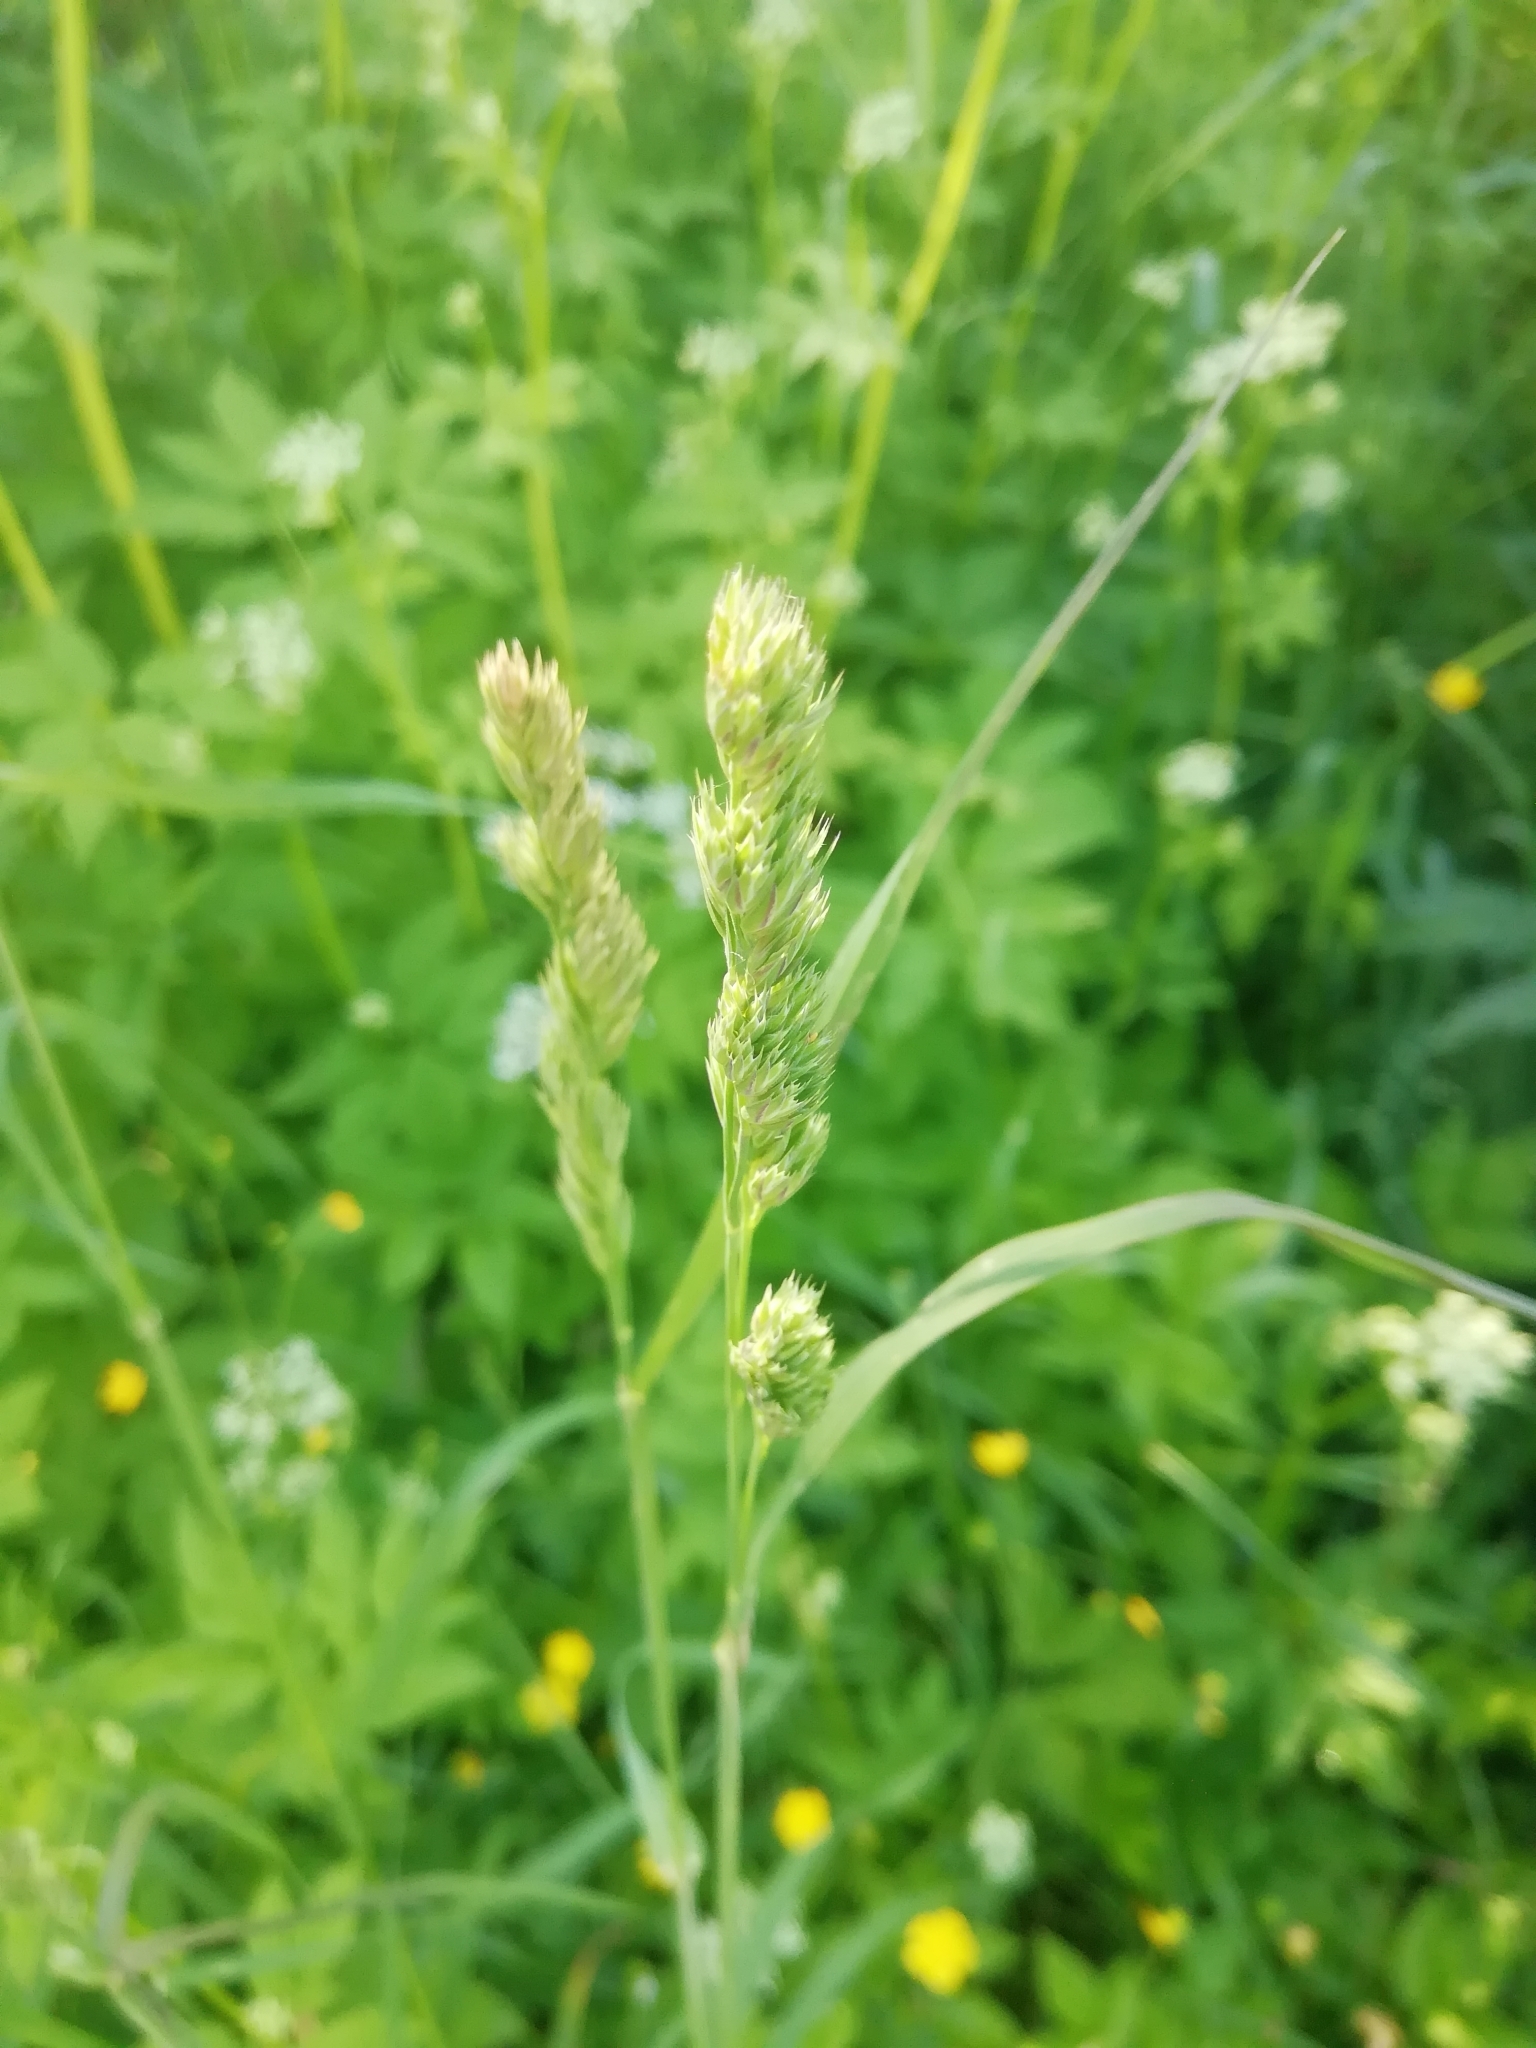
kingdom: Plantae
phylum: Tracheophyta
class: Liliopsida
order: Poales
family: Poaceae
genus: Dactylis
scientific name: Dactylis glomerata
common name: Orchardgrass
